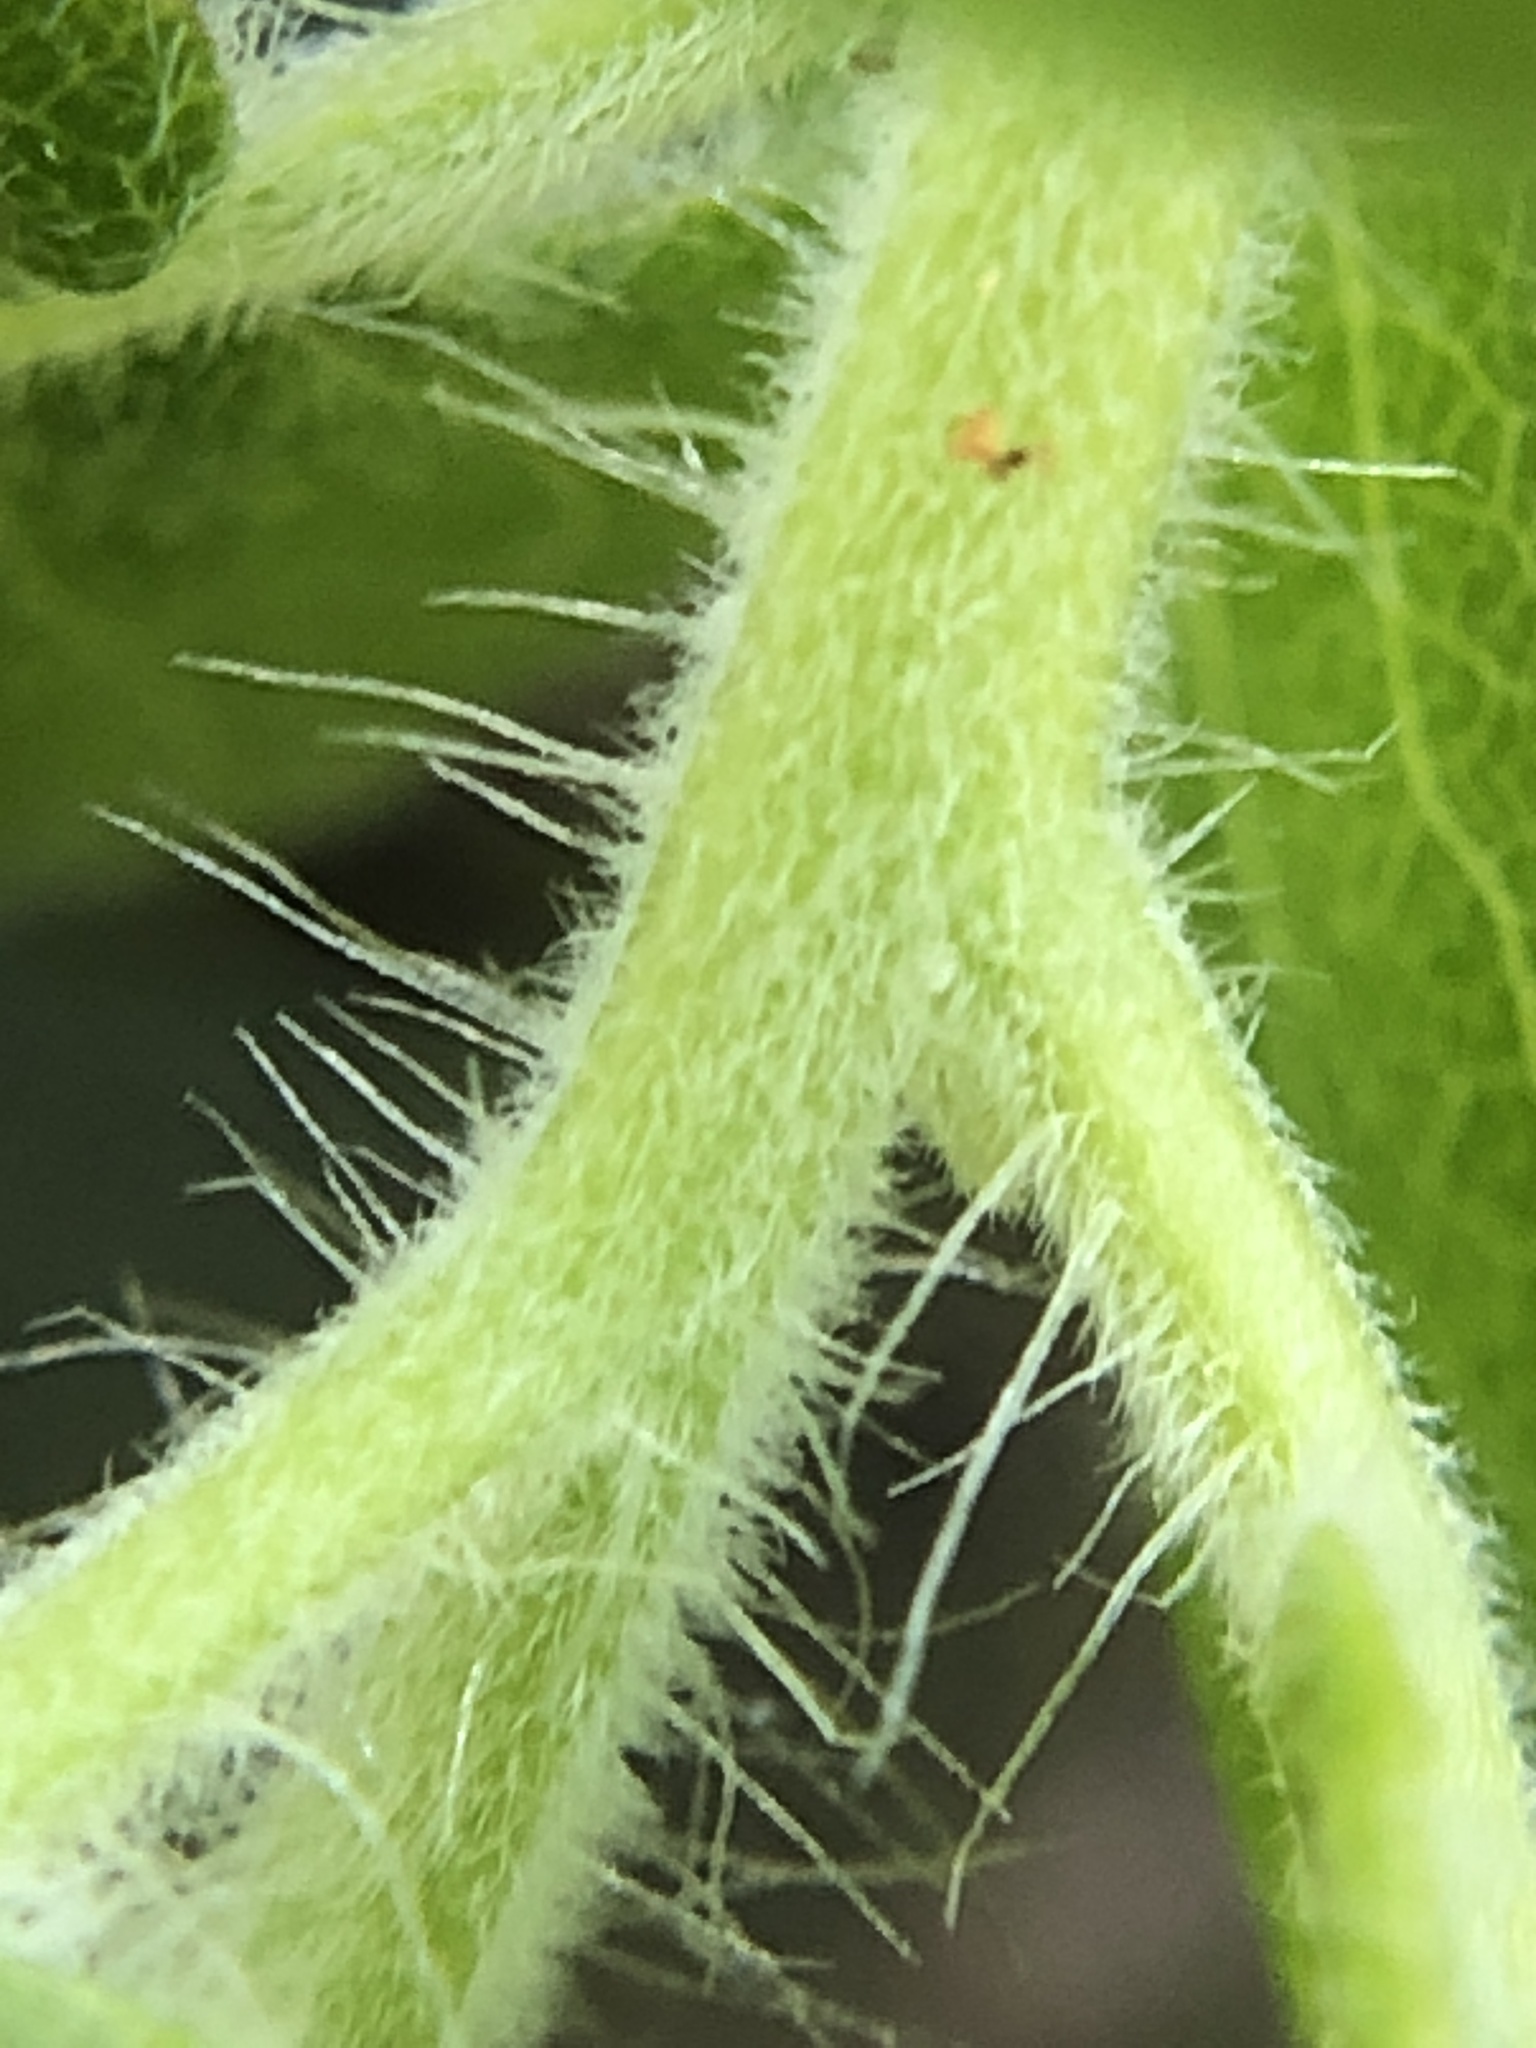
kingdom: Plantae
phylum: Tracheophyta
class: Magnoliopsida
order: Ericales
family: Ericaceae
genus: Arctostaphylos
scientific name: Arctostaphylos crustacea
